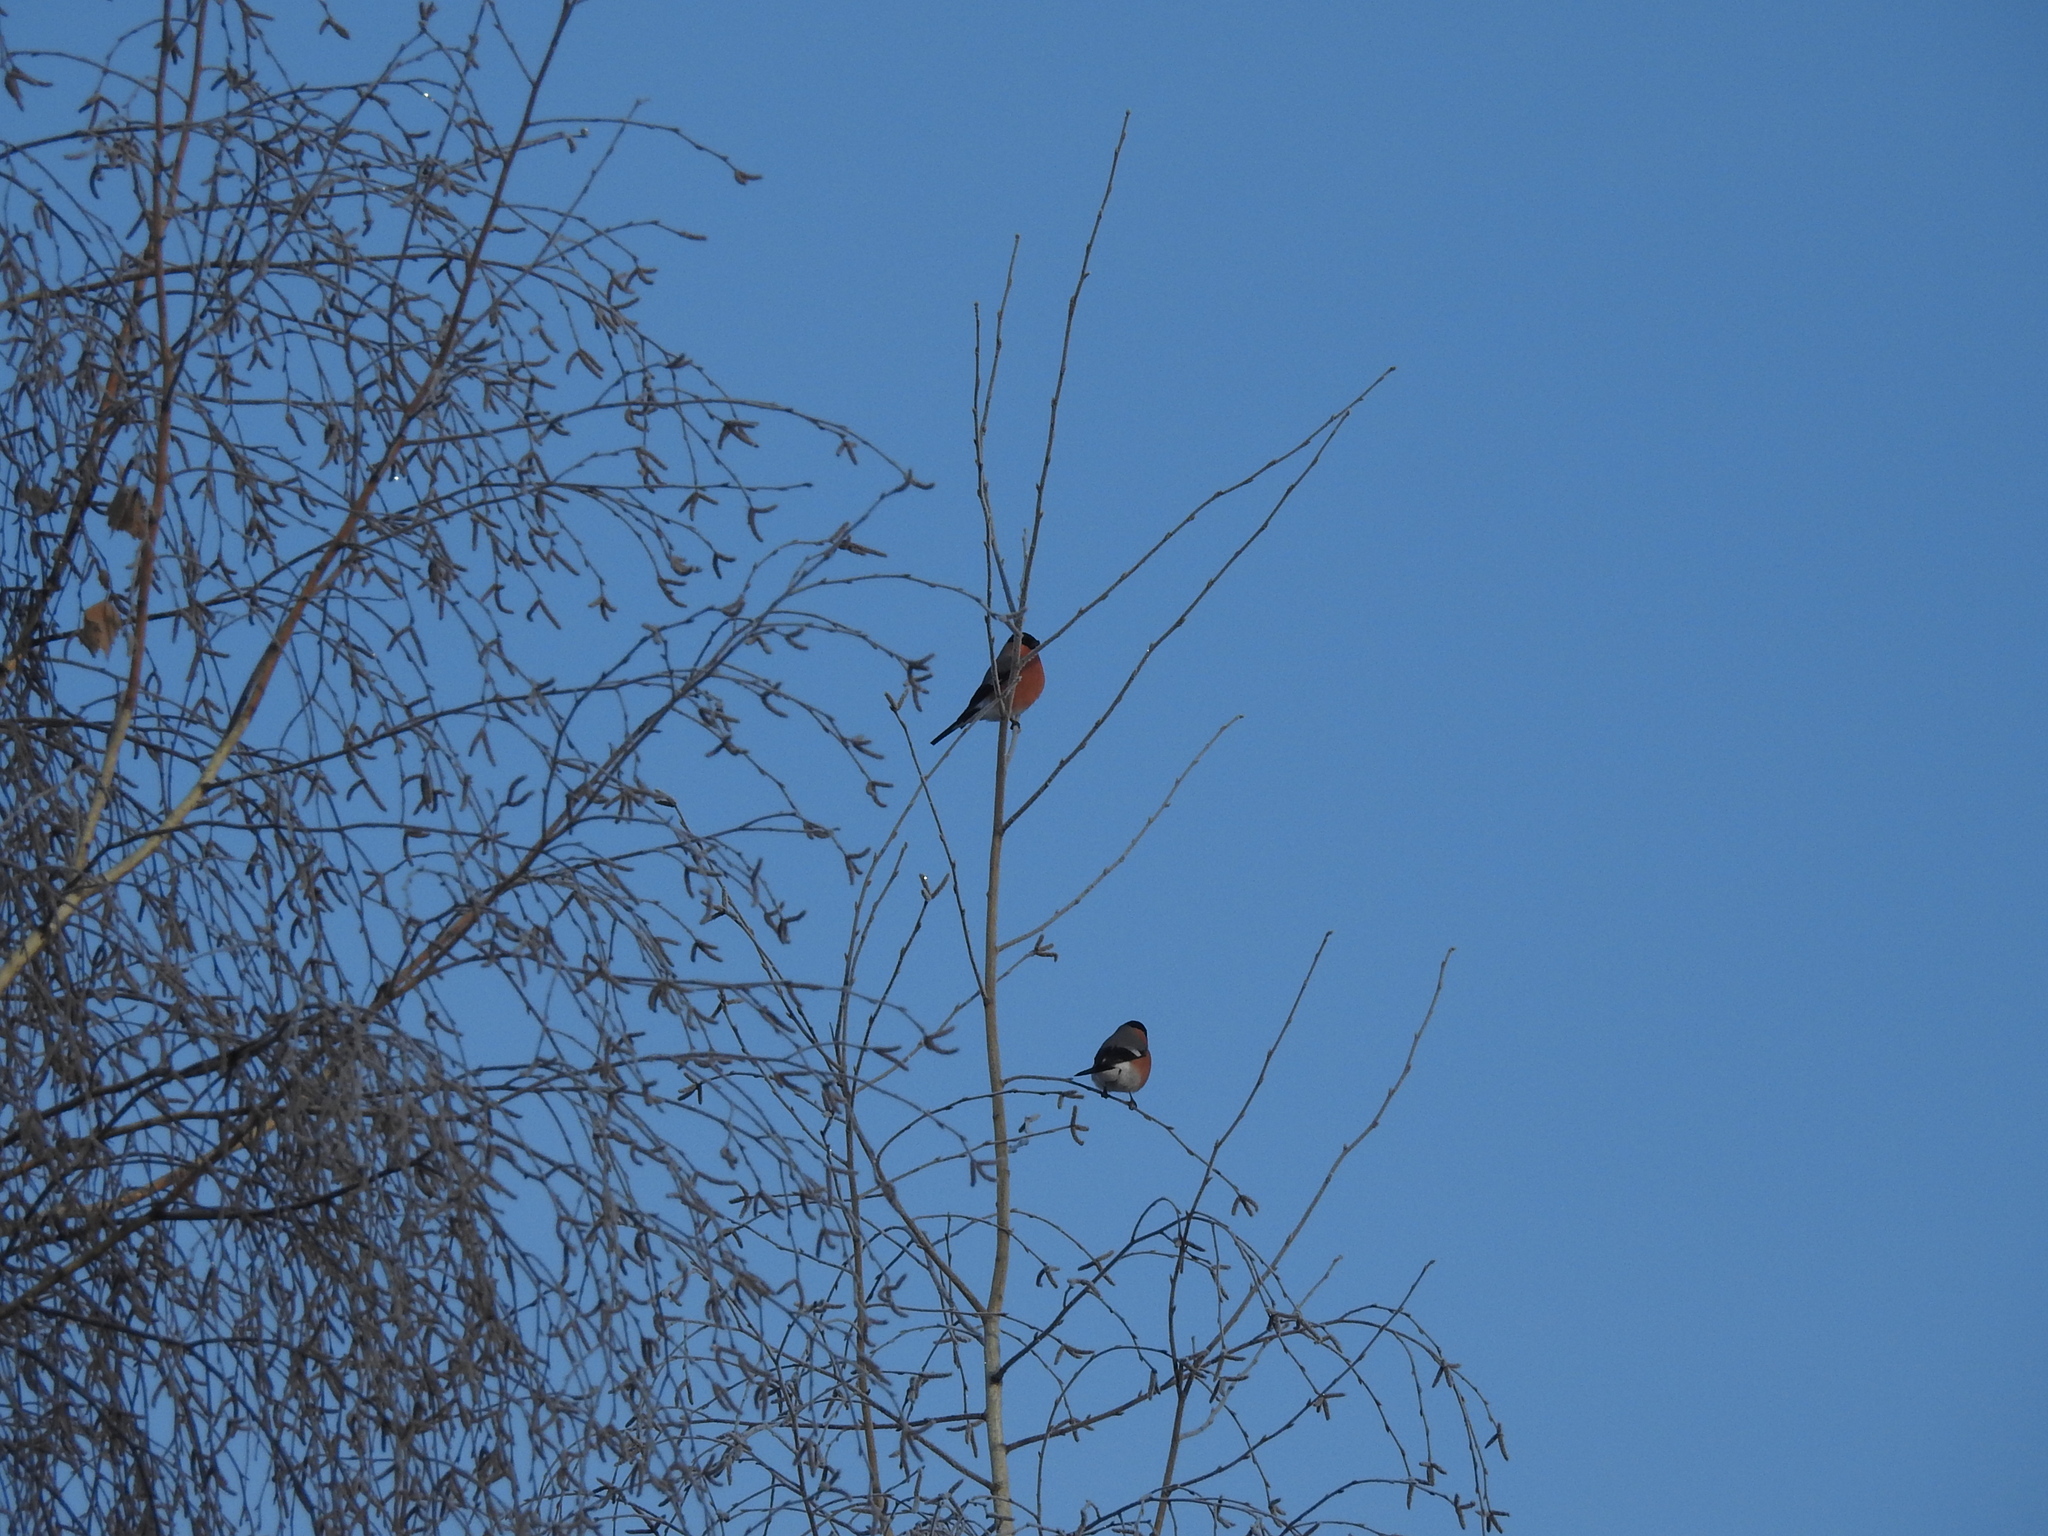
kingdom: Animalia
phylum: Chordata
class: Aves
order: Passeriformes
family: Fringillidae
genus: Pyrrhula
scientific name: Pyrrhula pyrrhula
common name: Eurasian bullfinch
